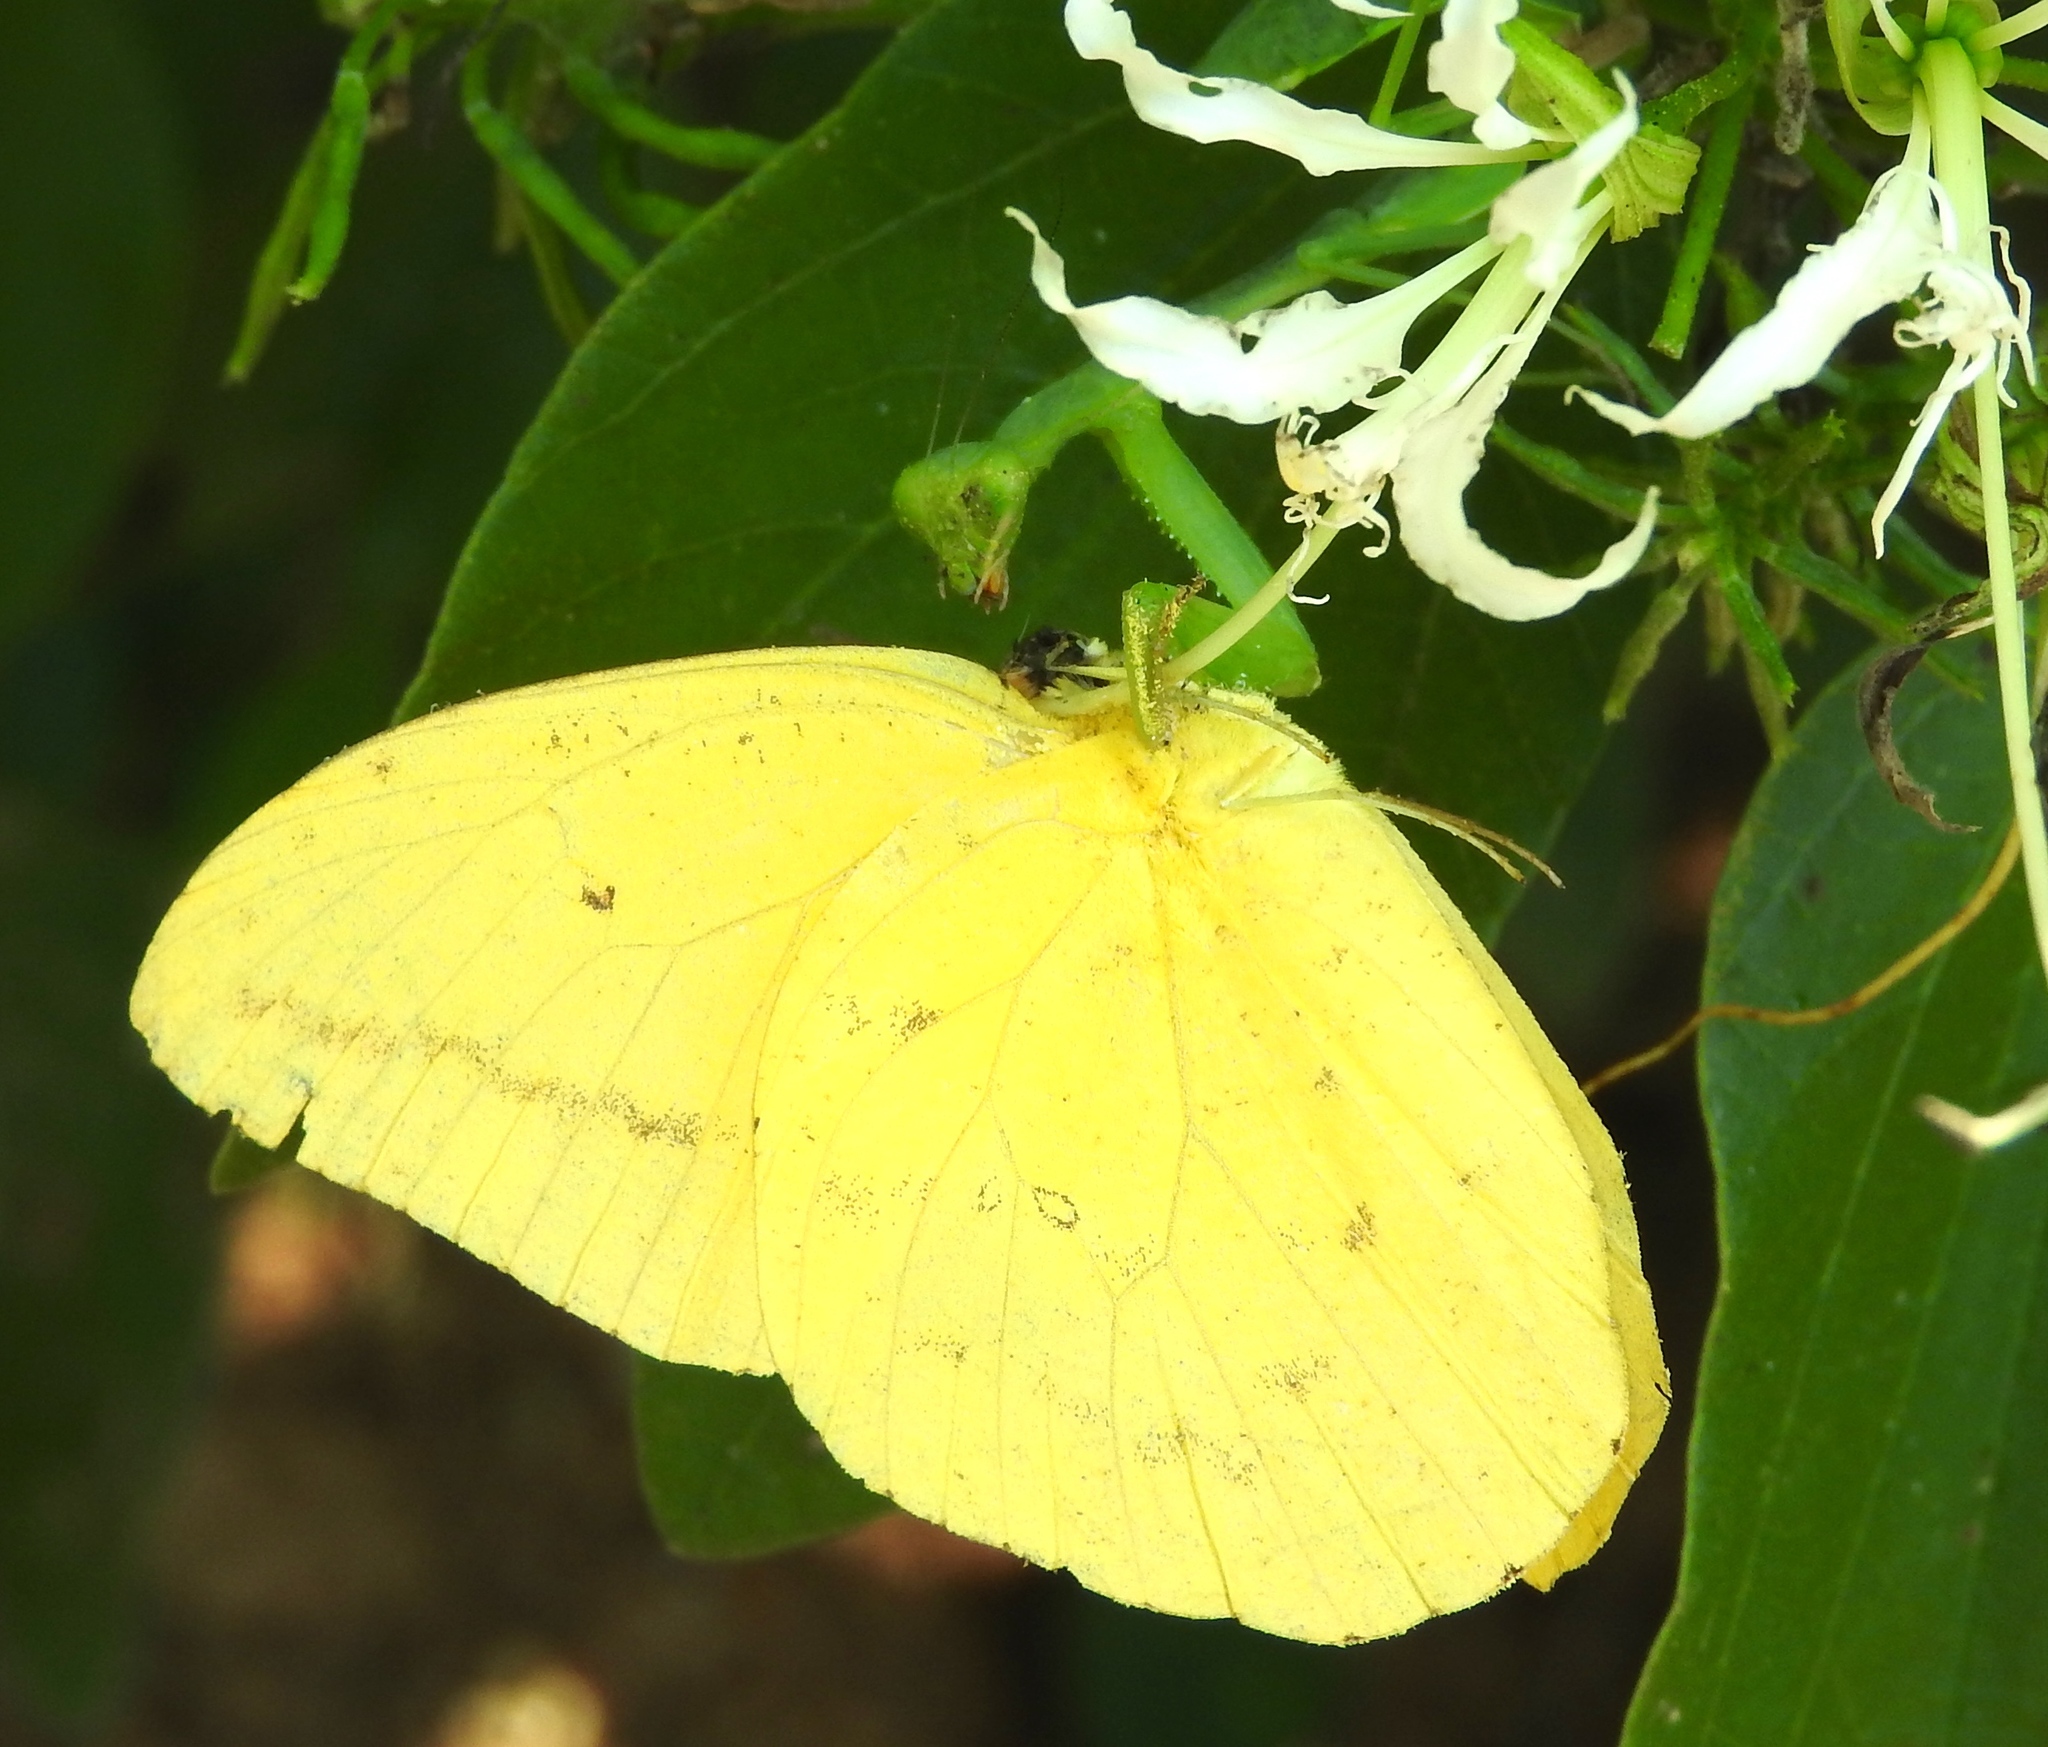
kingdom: Animalia
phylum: Arthropoda
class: Insecta
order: Mantodea
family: Mantidae
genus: Stagmomantis
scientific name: Stagmomantis limbata
